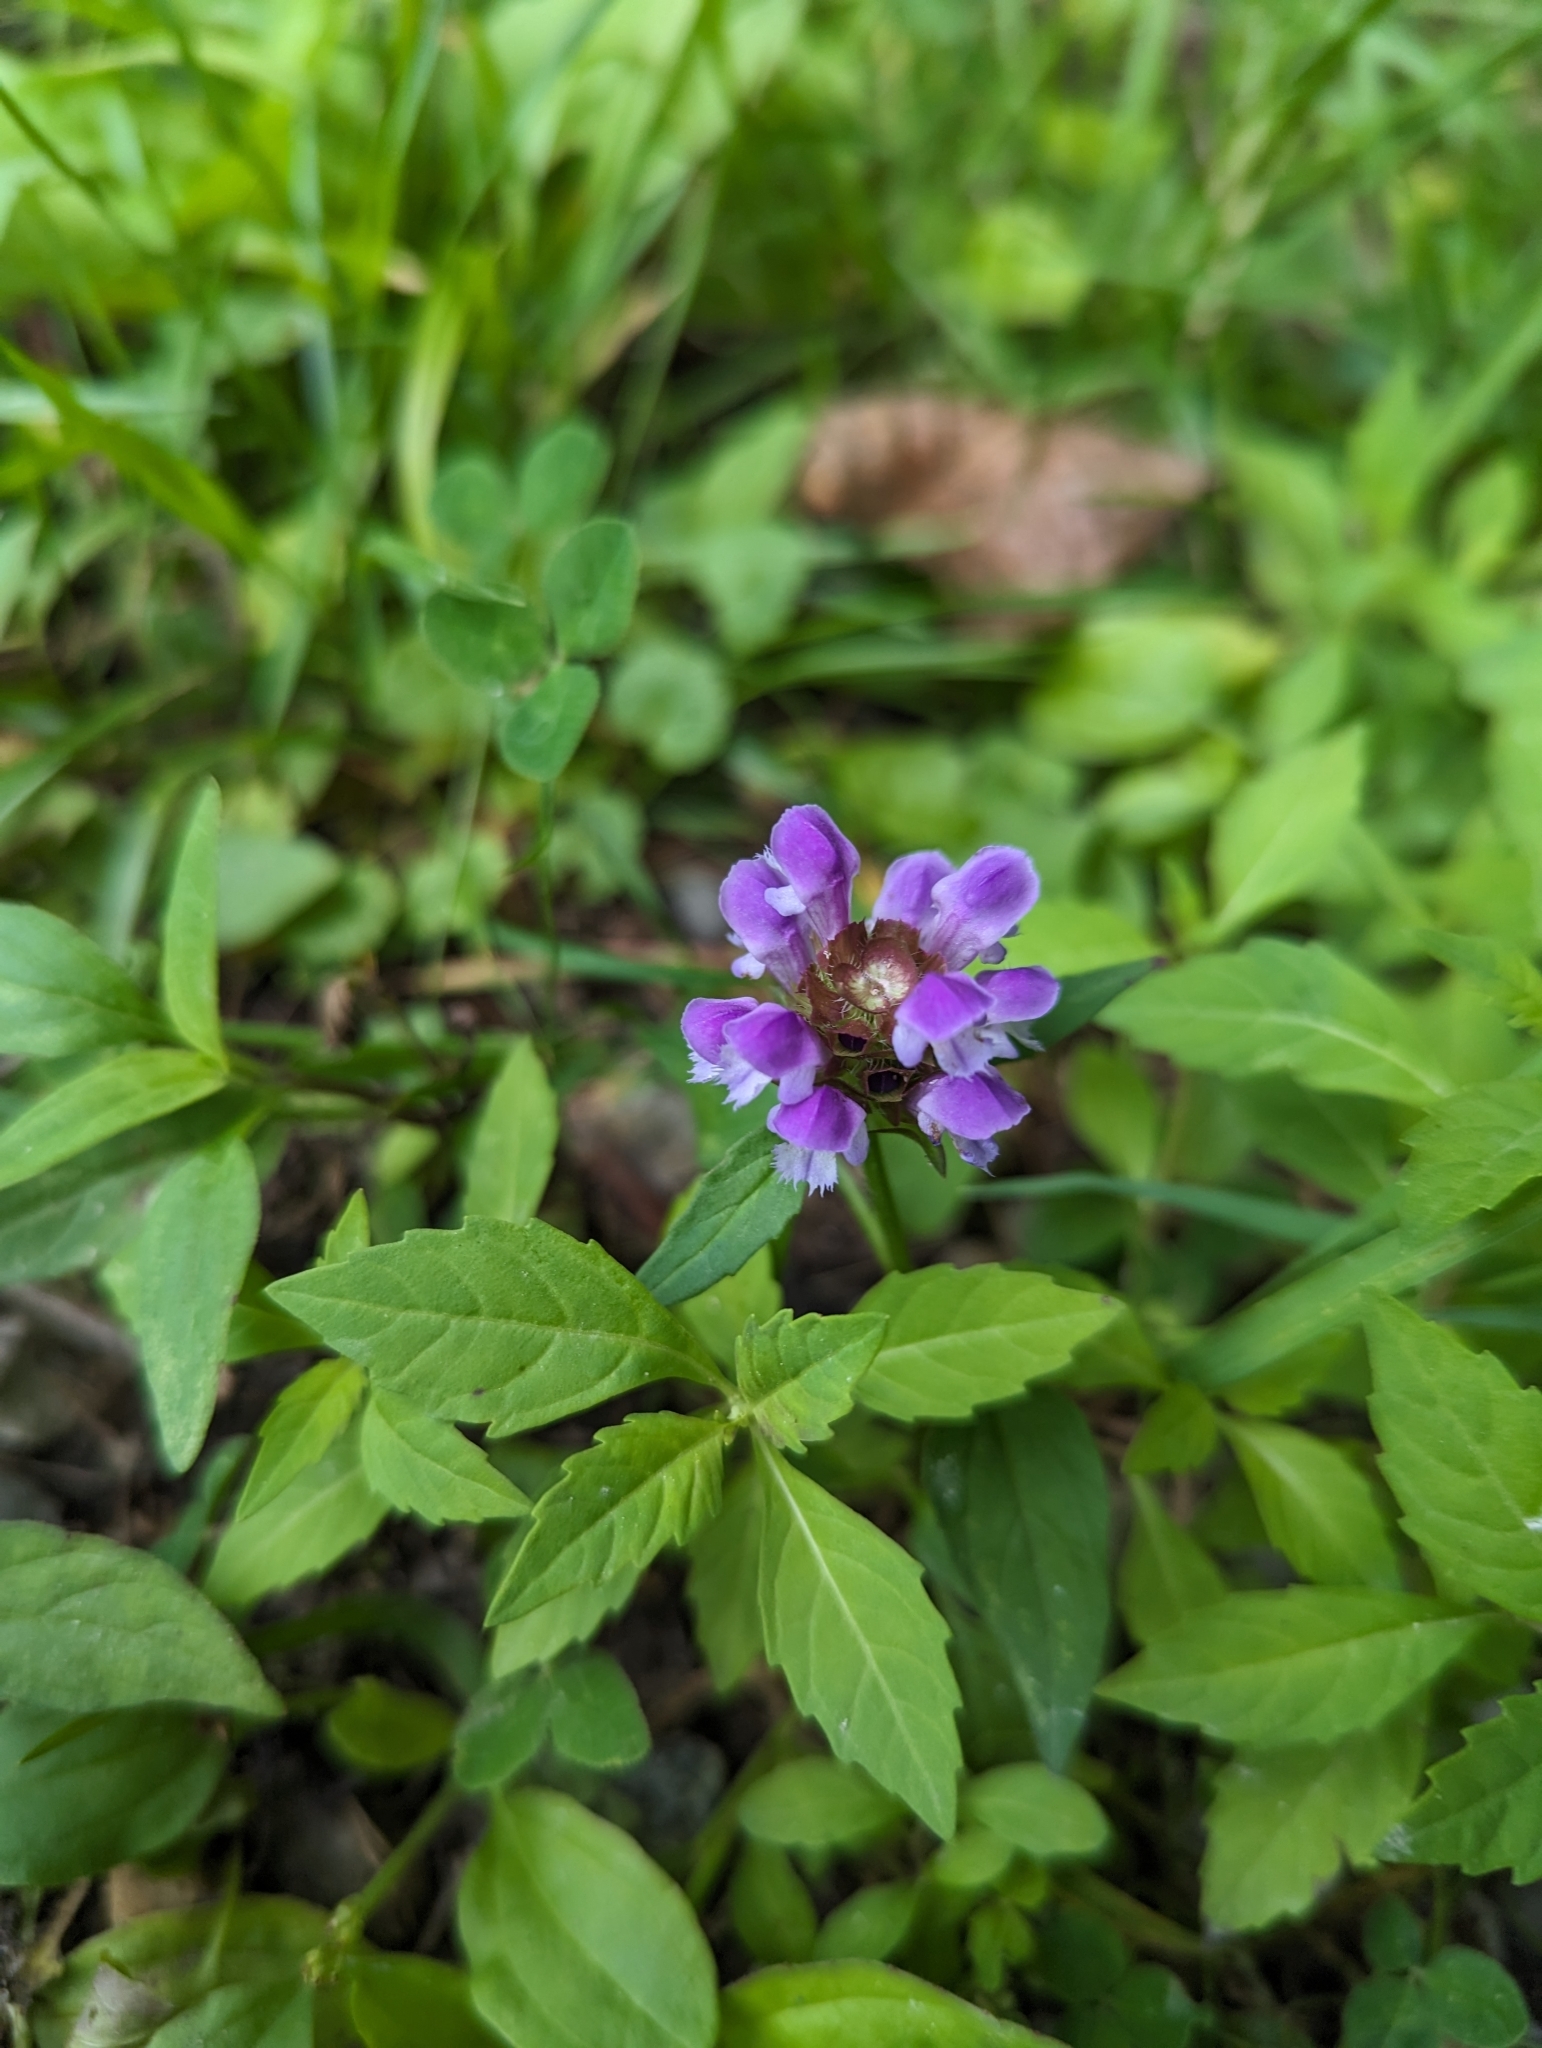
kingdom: Plantae
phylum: Tracheophyta
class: Magnoliopsida
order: Lamiales
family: Lamiaceae
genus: Prunella
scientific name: Prunella vulgaris
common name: Heal-all
